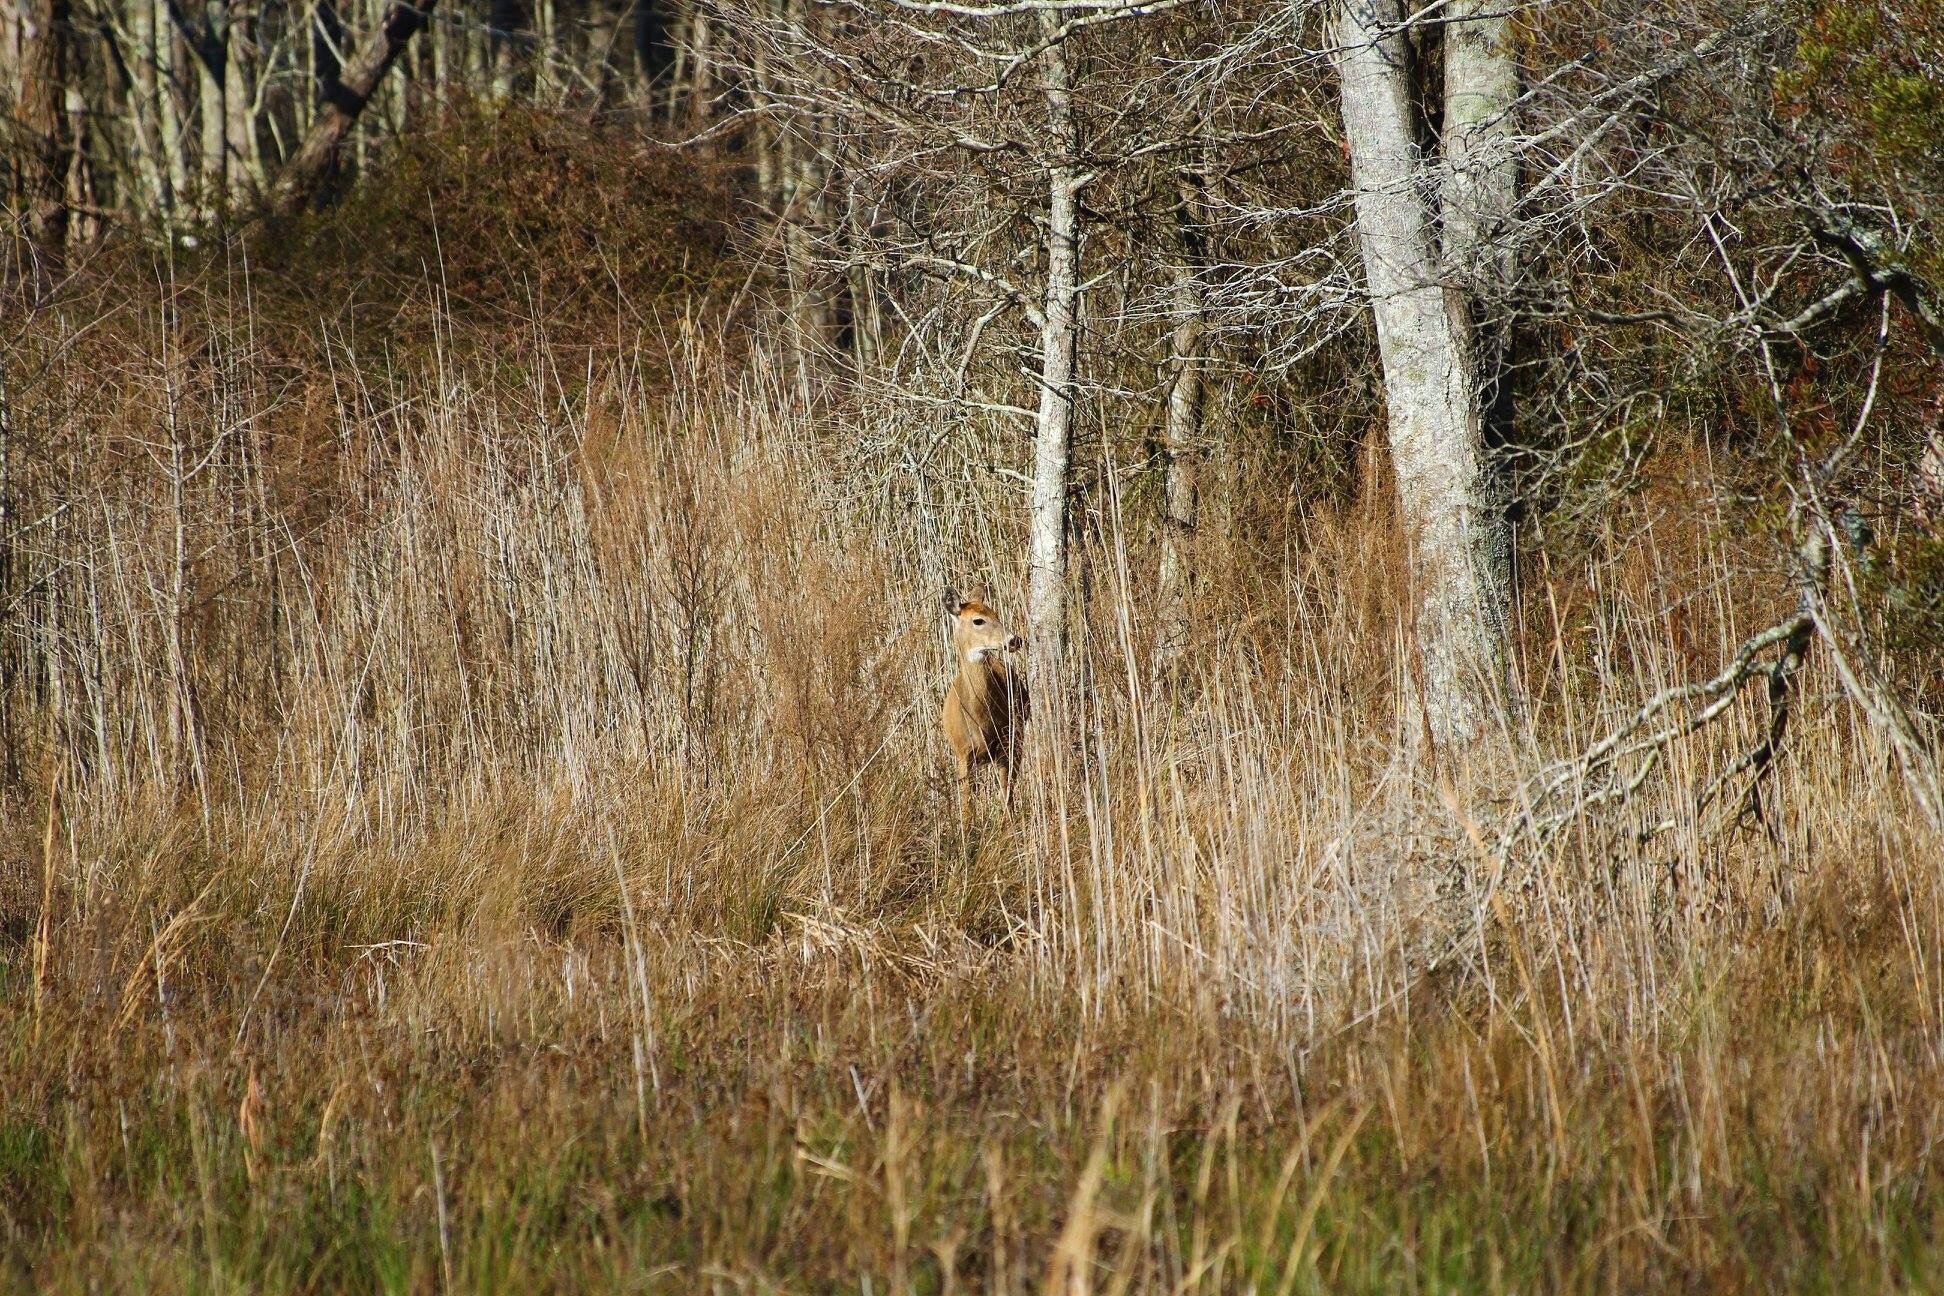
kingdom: Animalia
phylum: Chordata
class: Mammalia
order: Artiodactyla
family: Cervidae
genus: Odocoileus
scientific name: Odocoileus virginianus
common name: White-tailed deer
